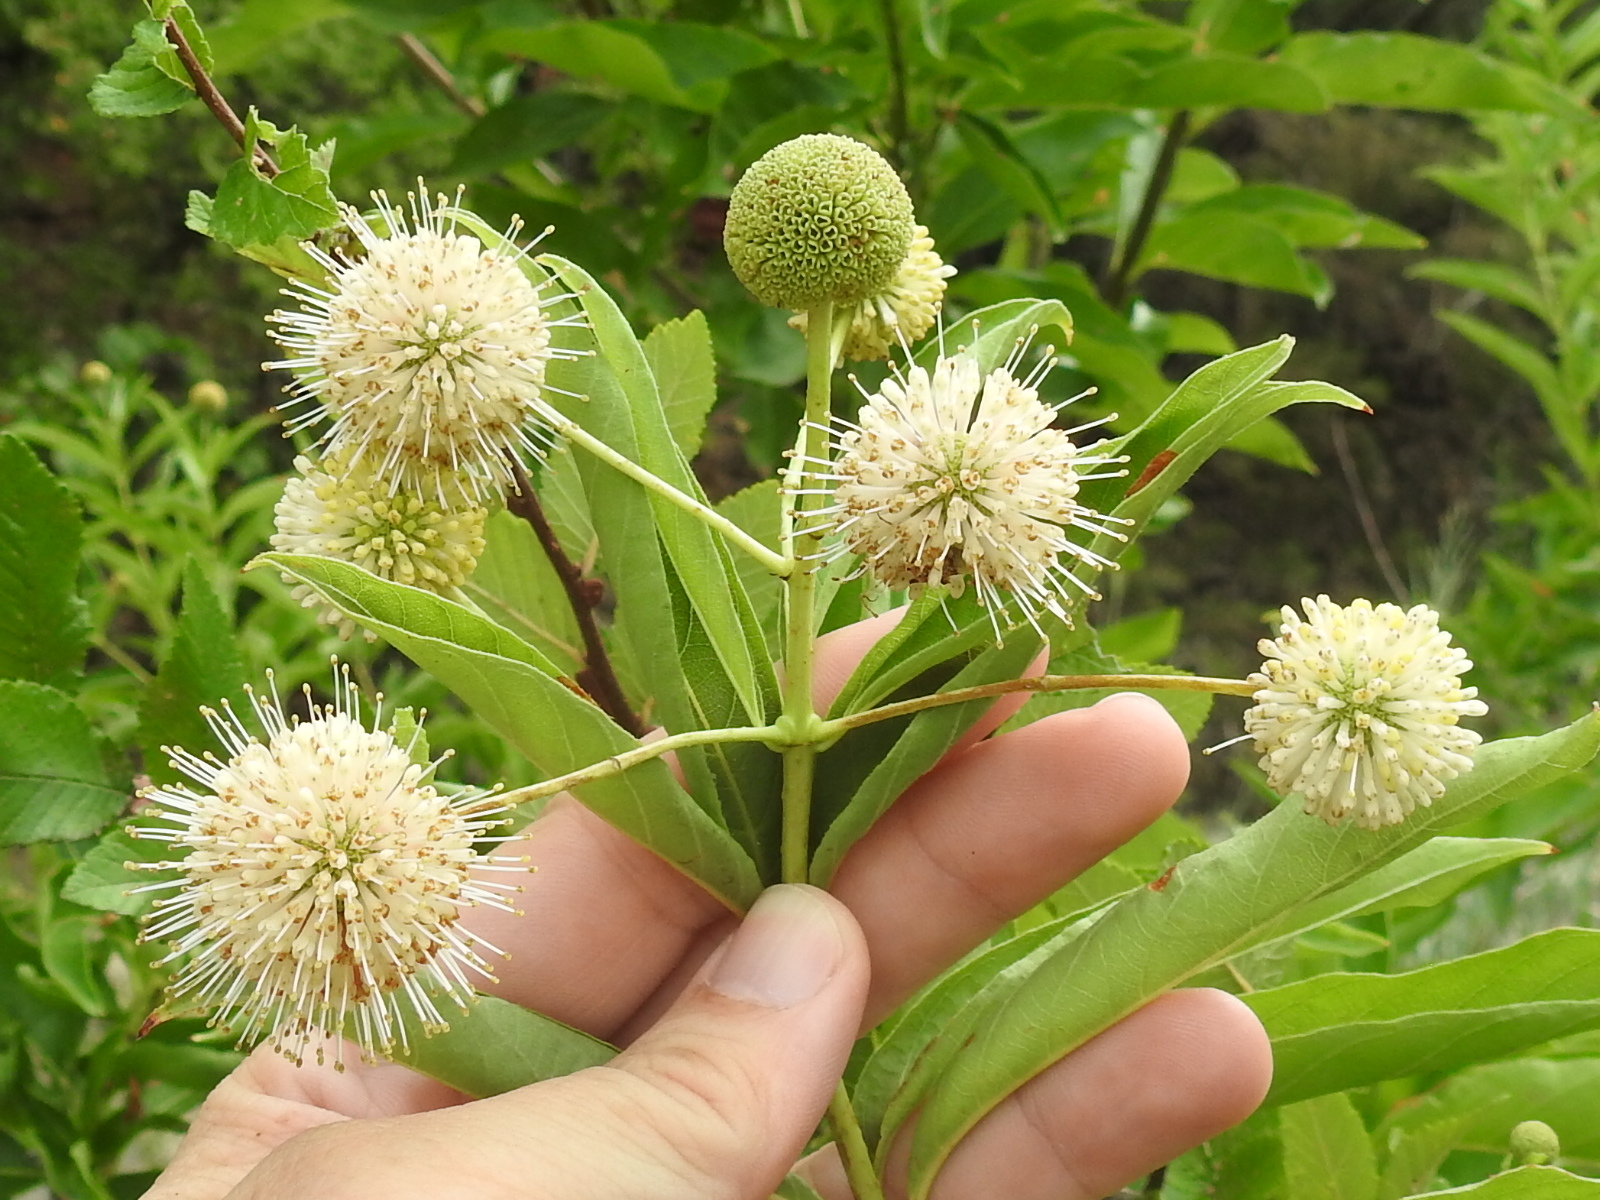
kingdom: Plantae
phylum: Tracheophyta
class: Magnoliopsida
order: Gentianales
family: Rubiaceae
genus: Cephalanthus
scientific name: Cephalanthus occidentalis
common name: Button-willow
